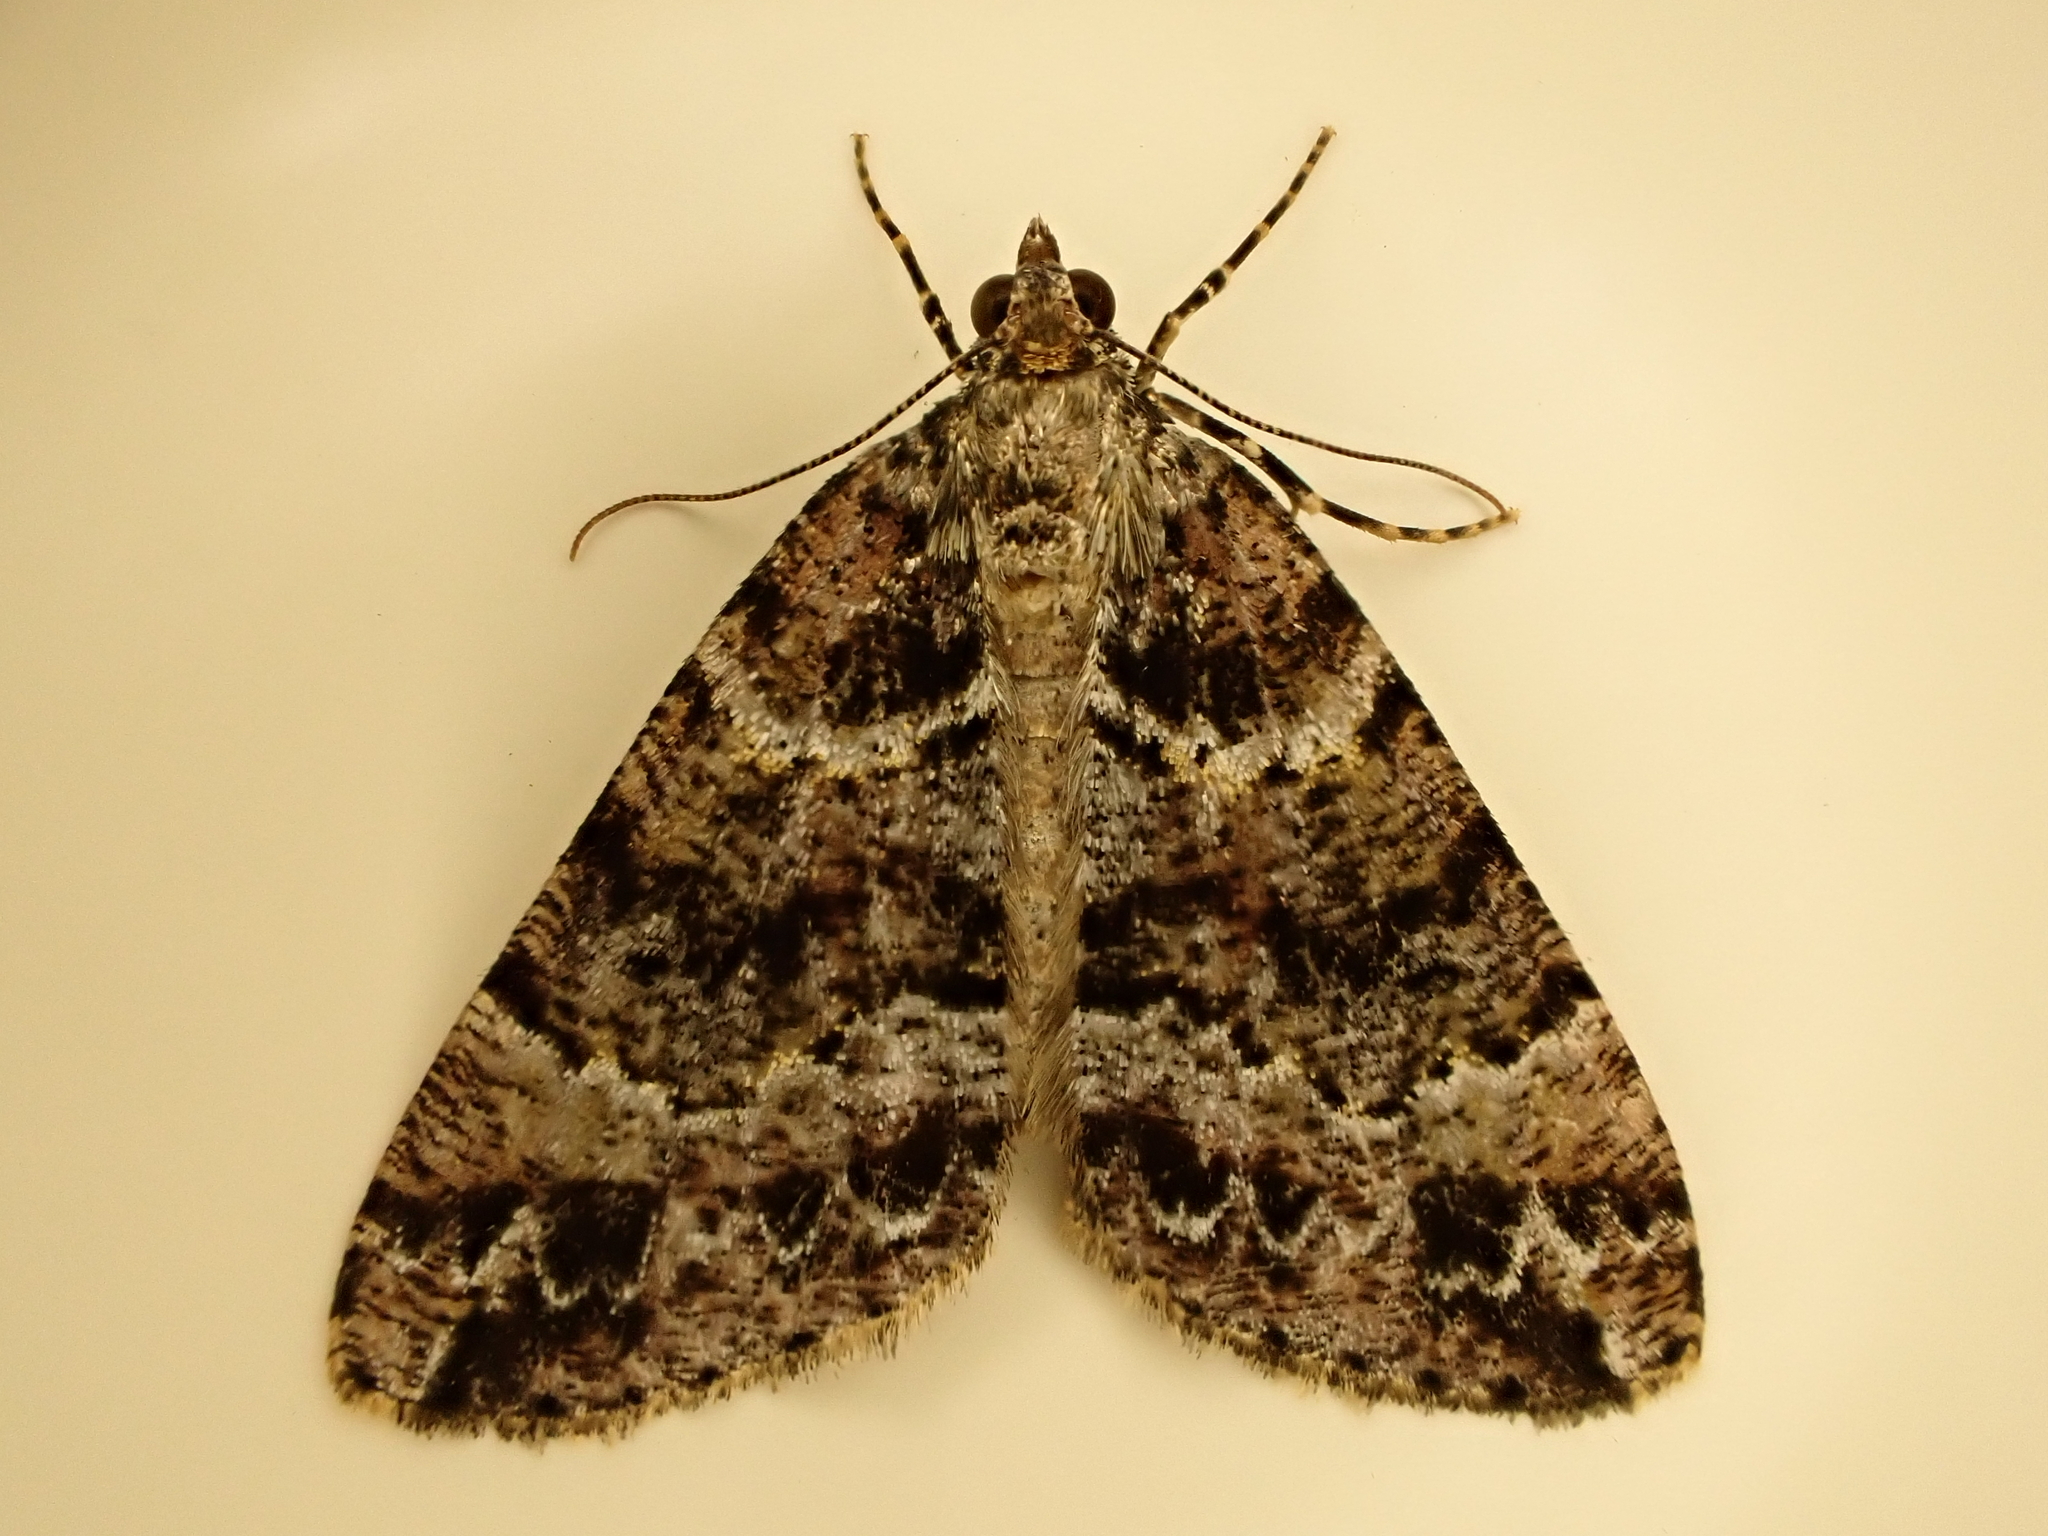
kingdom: Animalia
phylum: Arthropoda
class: Insecta
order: Lepidoptera
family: Geometridae
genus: Pseudocoremia
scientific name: Pseudocoremia productata
